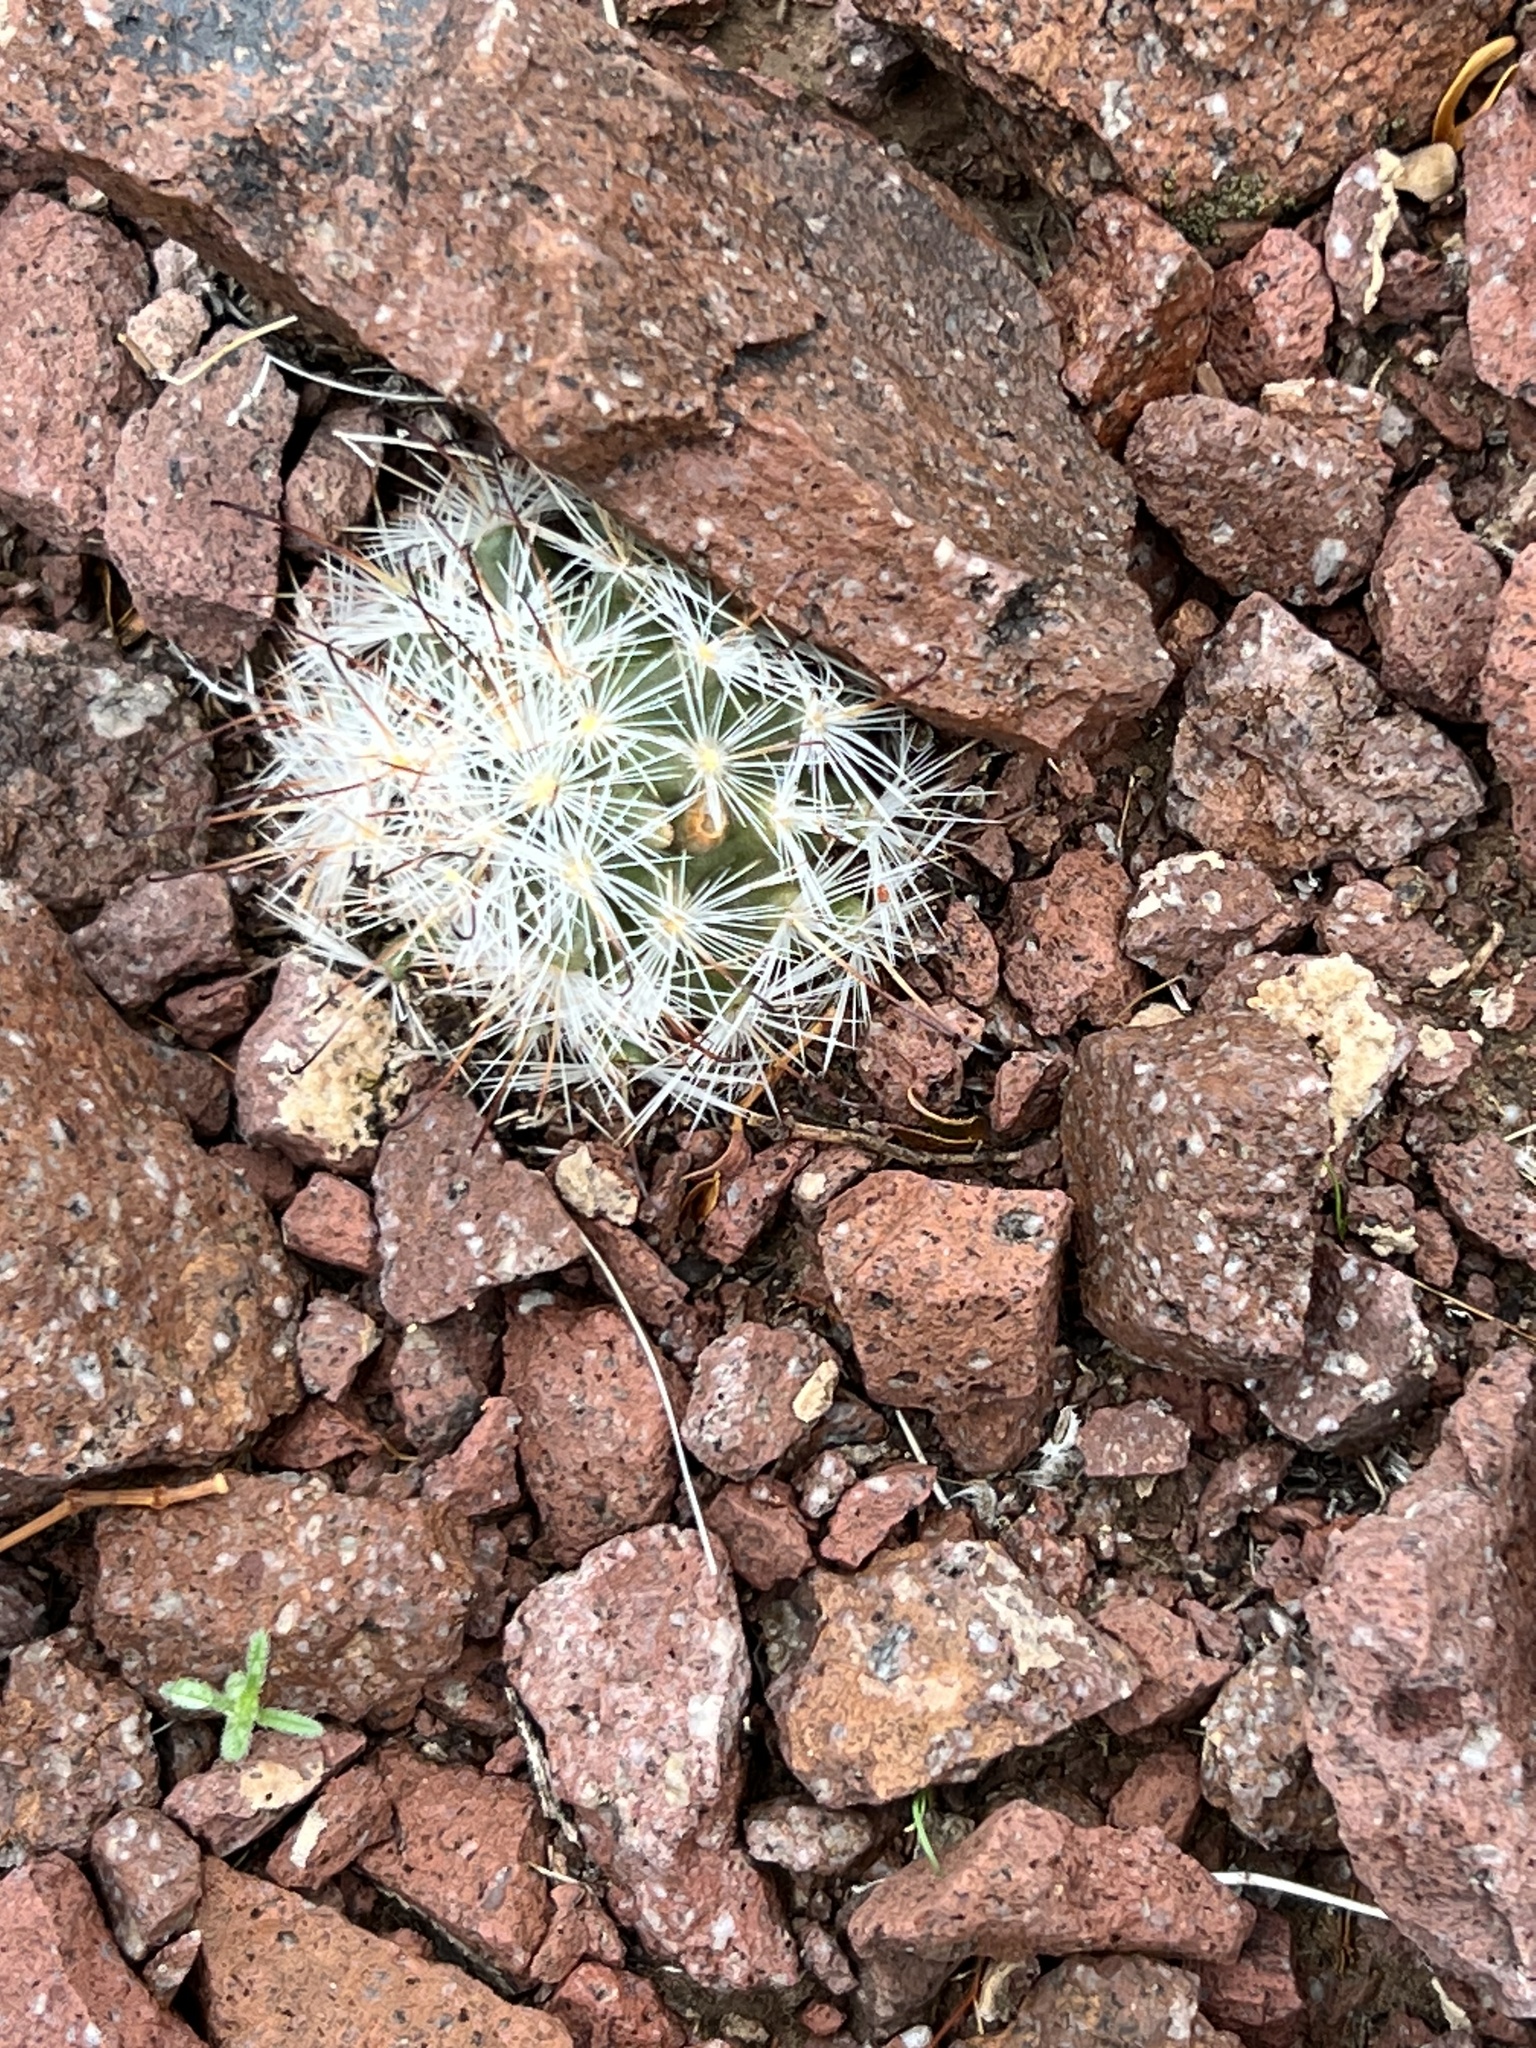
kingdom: Plantae
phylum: Tracheophyta
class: Magnoliopsida
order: Caryophyllales
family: Cactaceae
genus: Cochemiea
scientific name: Cochemiea tetrancistra
